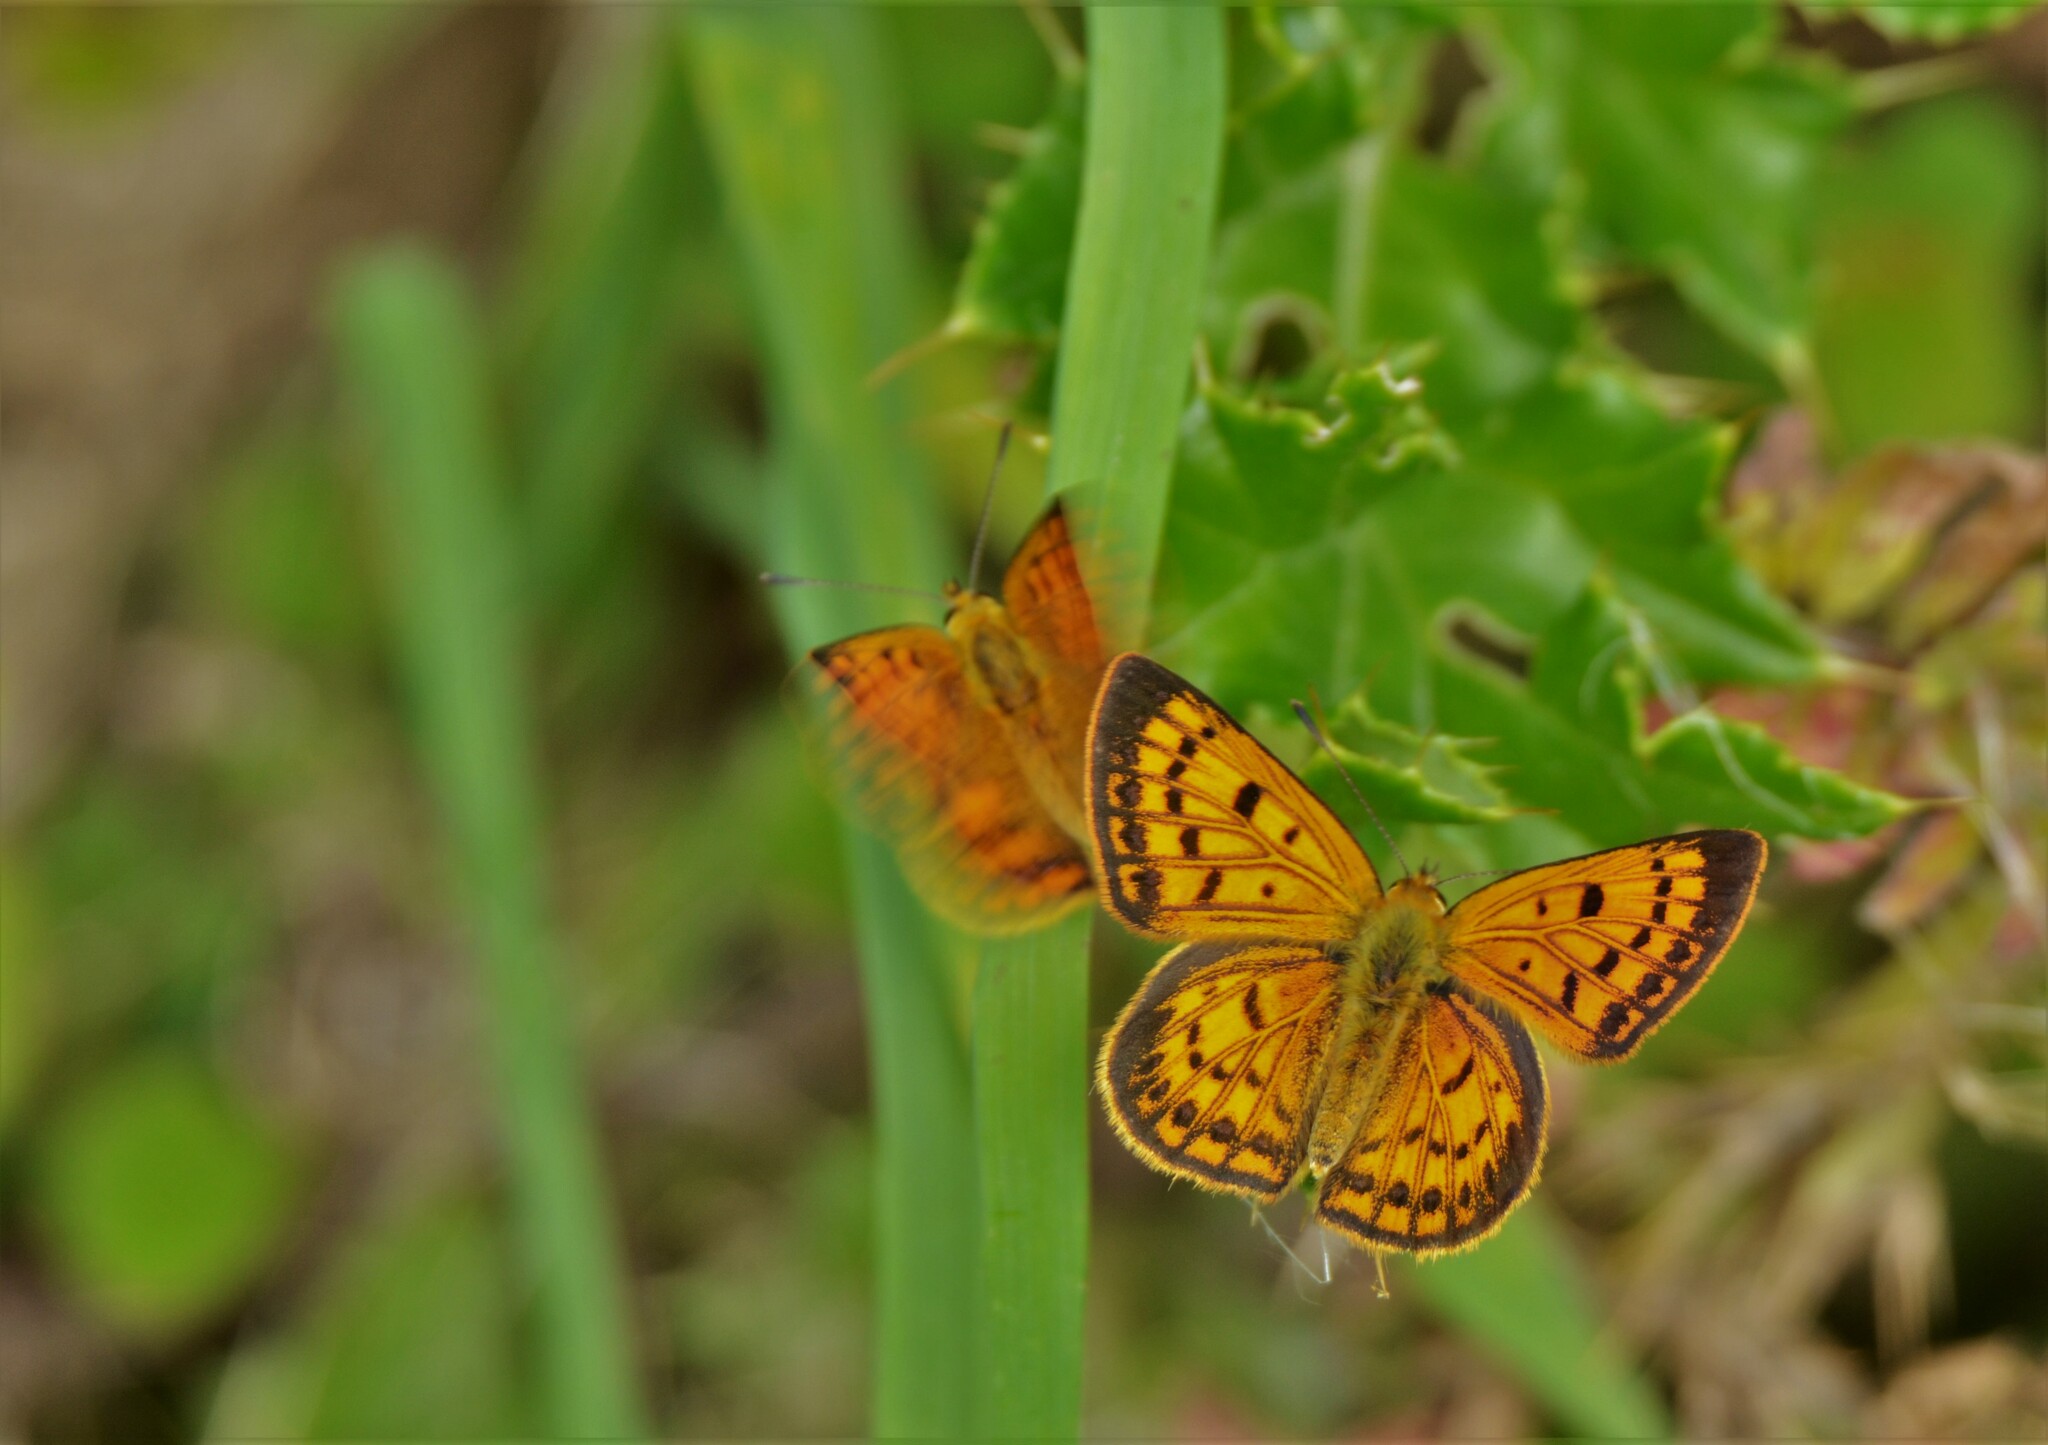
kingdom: Animalia
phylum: Arthropoda
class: Insecta
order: Lepidoptera
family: Lycaenidae
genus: Lycaena
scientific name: Lycaena
